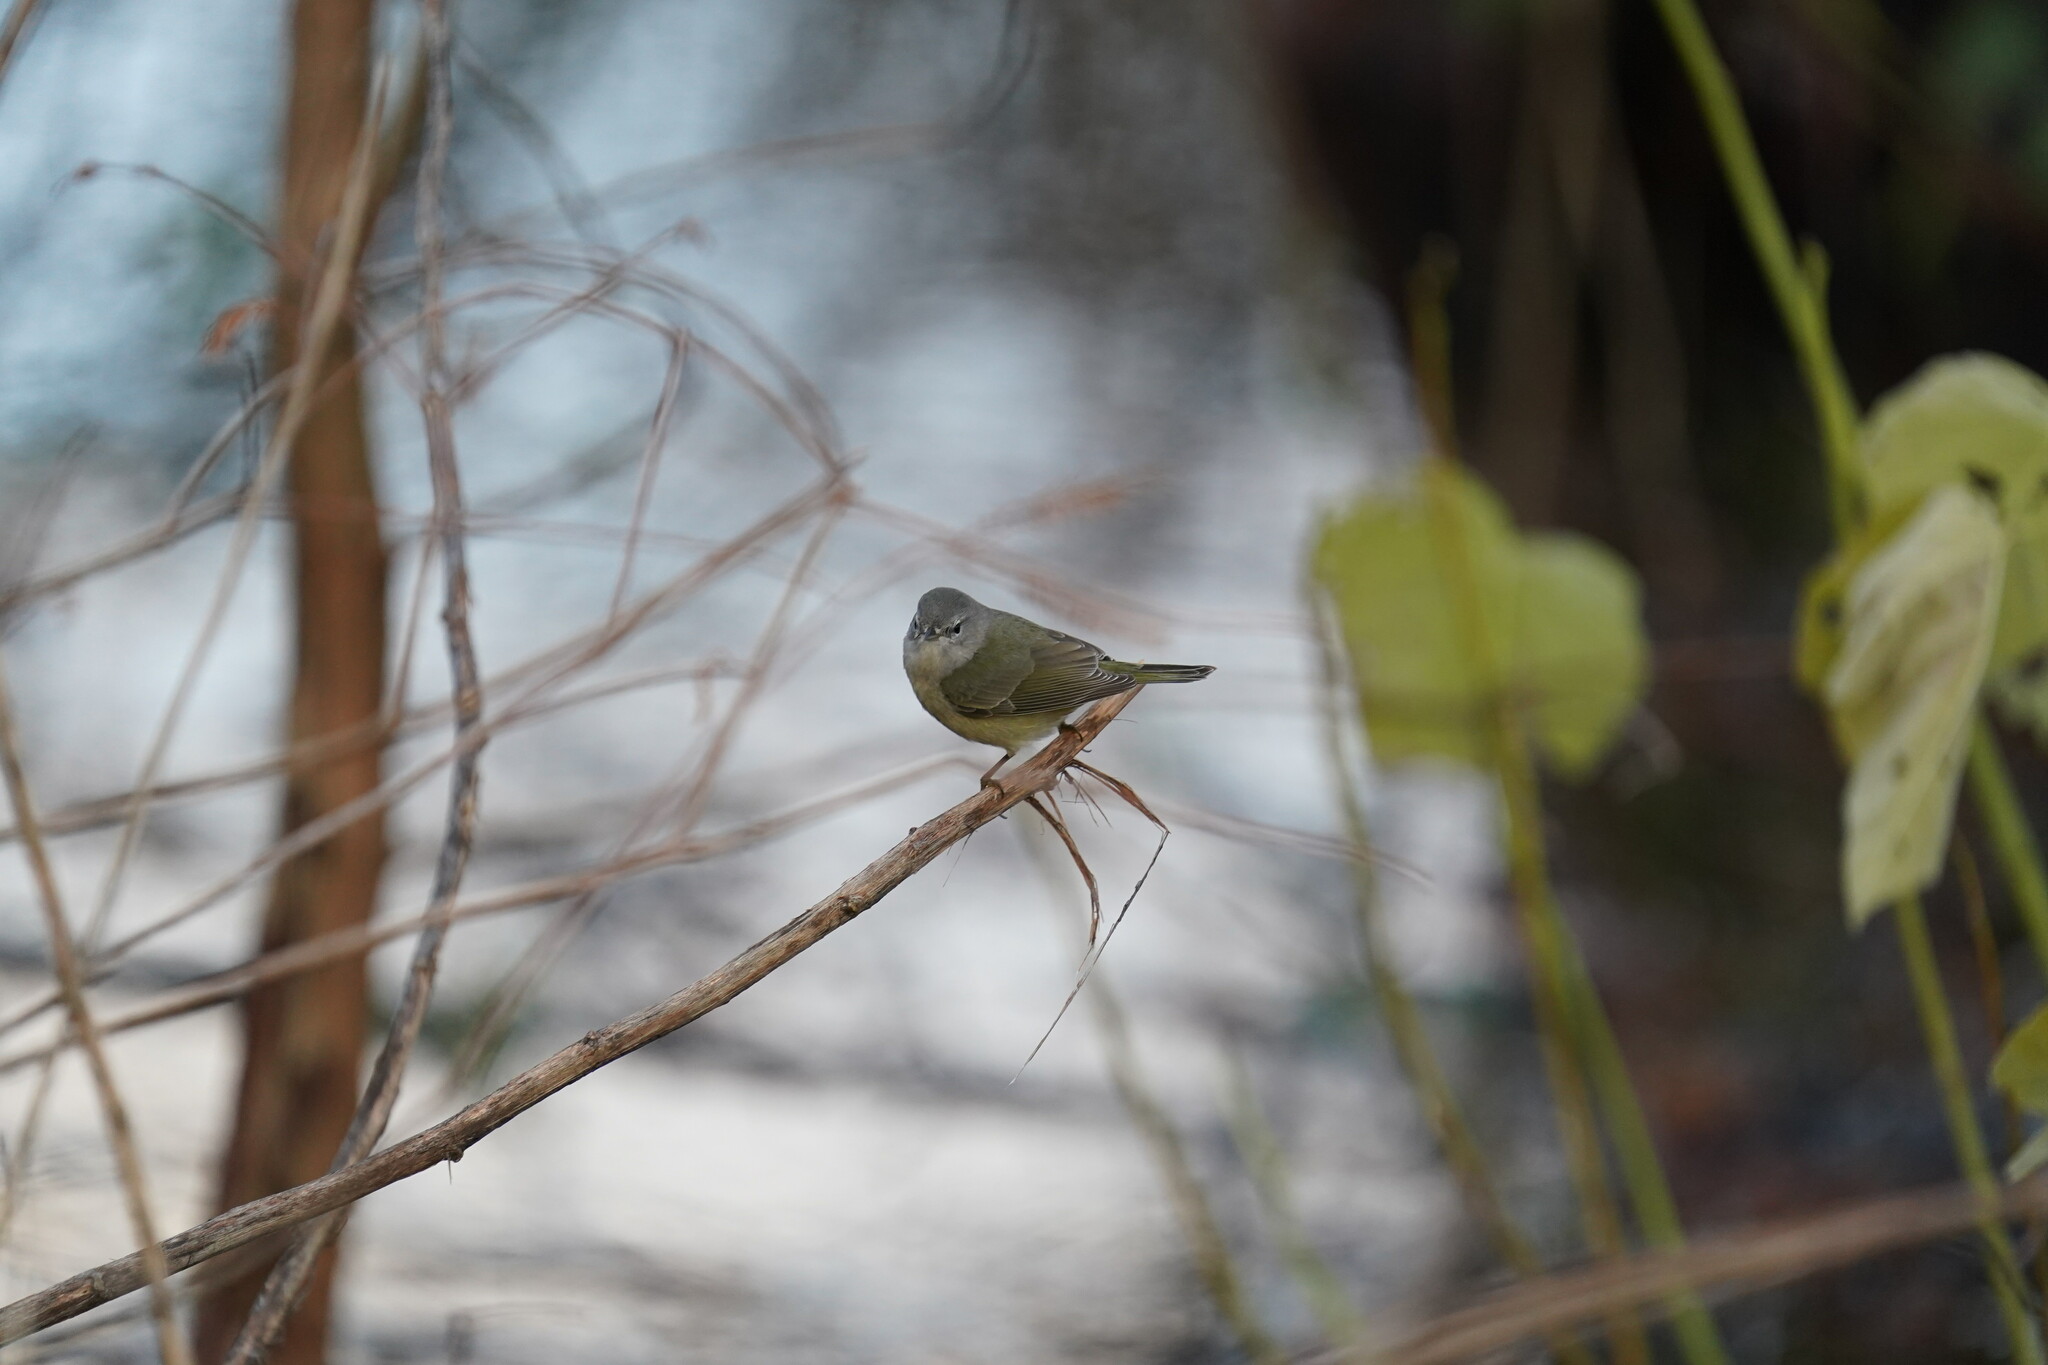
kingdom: Animalia
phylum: Chordata
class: Aves
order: Passeriformes
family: Parulidae
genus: Leiothlypis
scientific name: Leiothlypis celata
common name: Orange-crowned warbler
